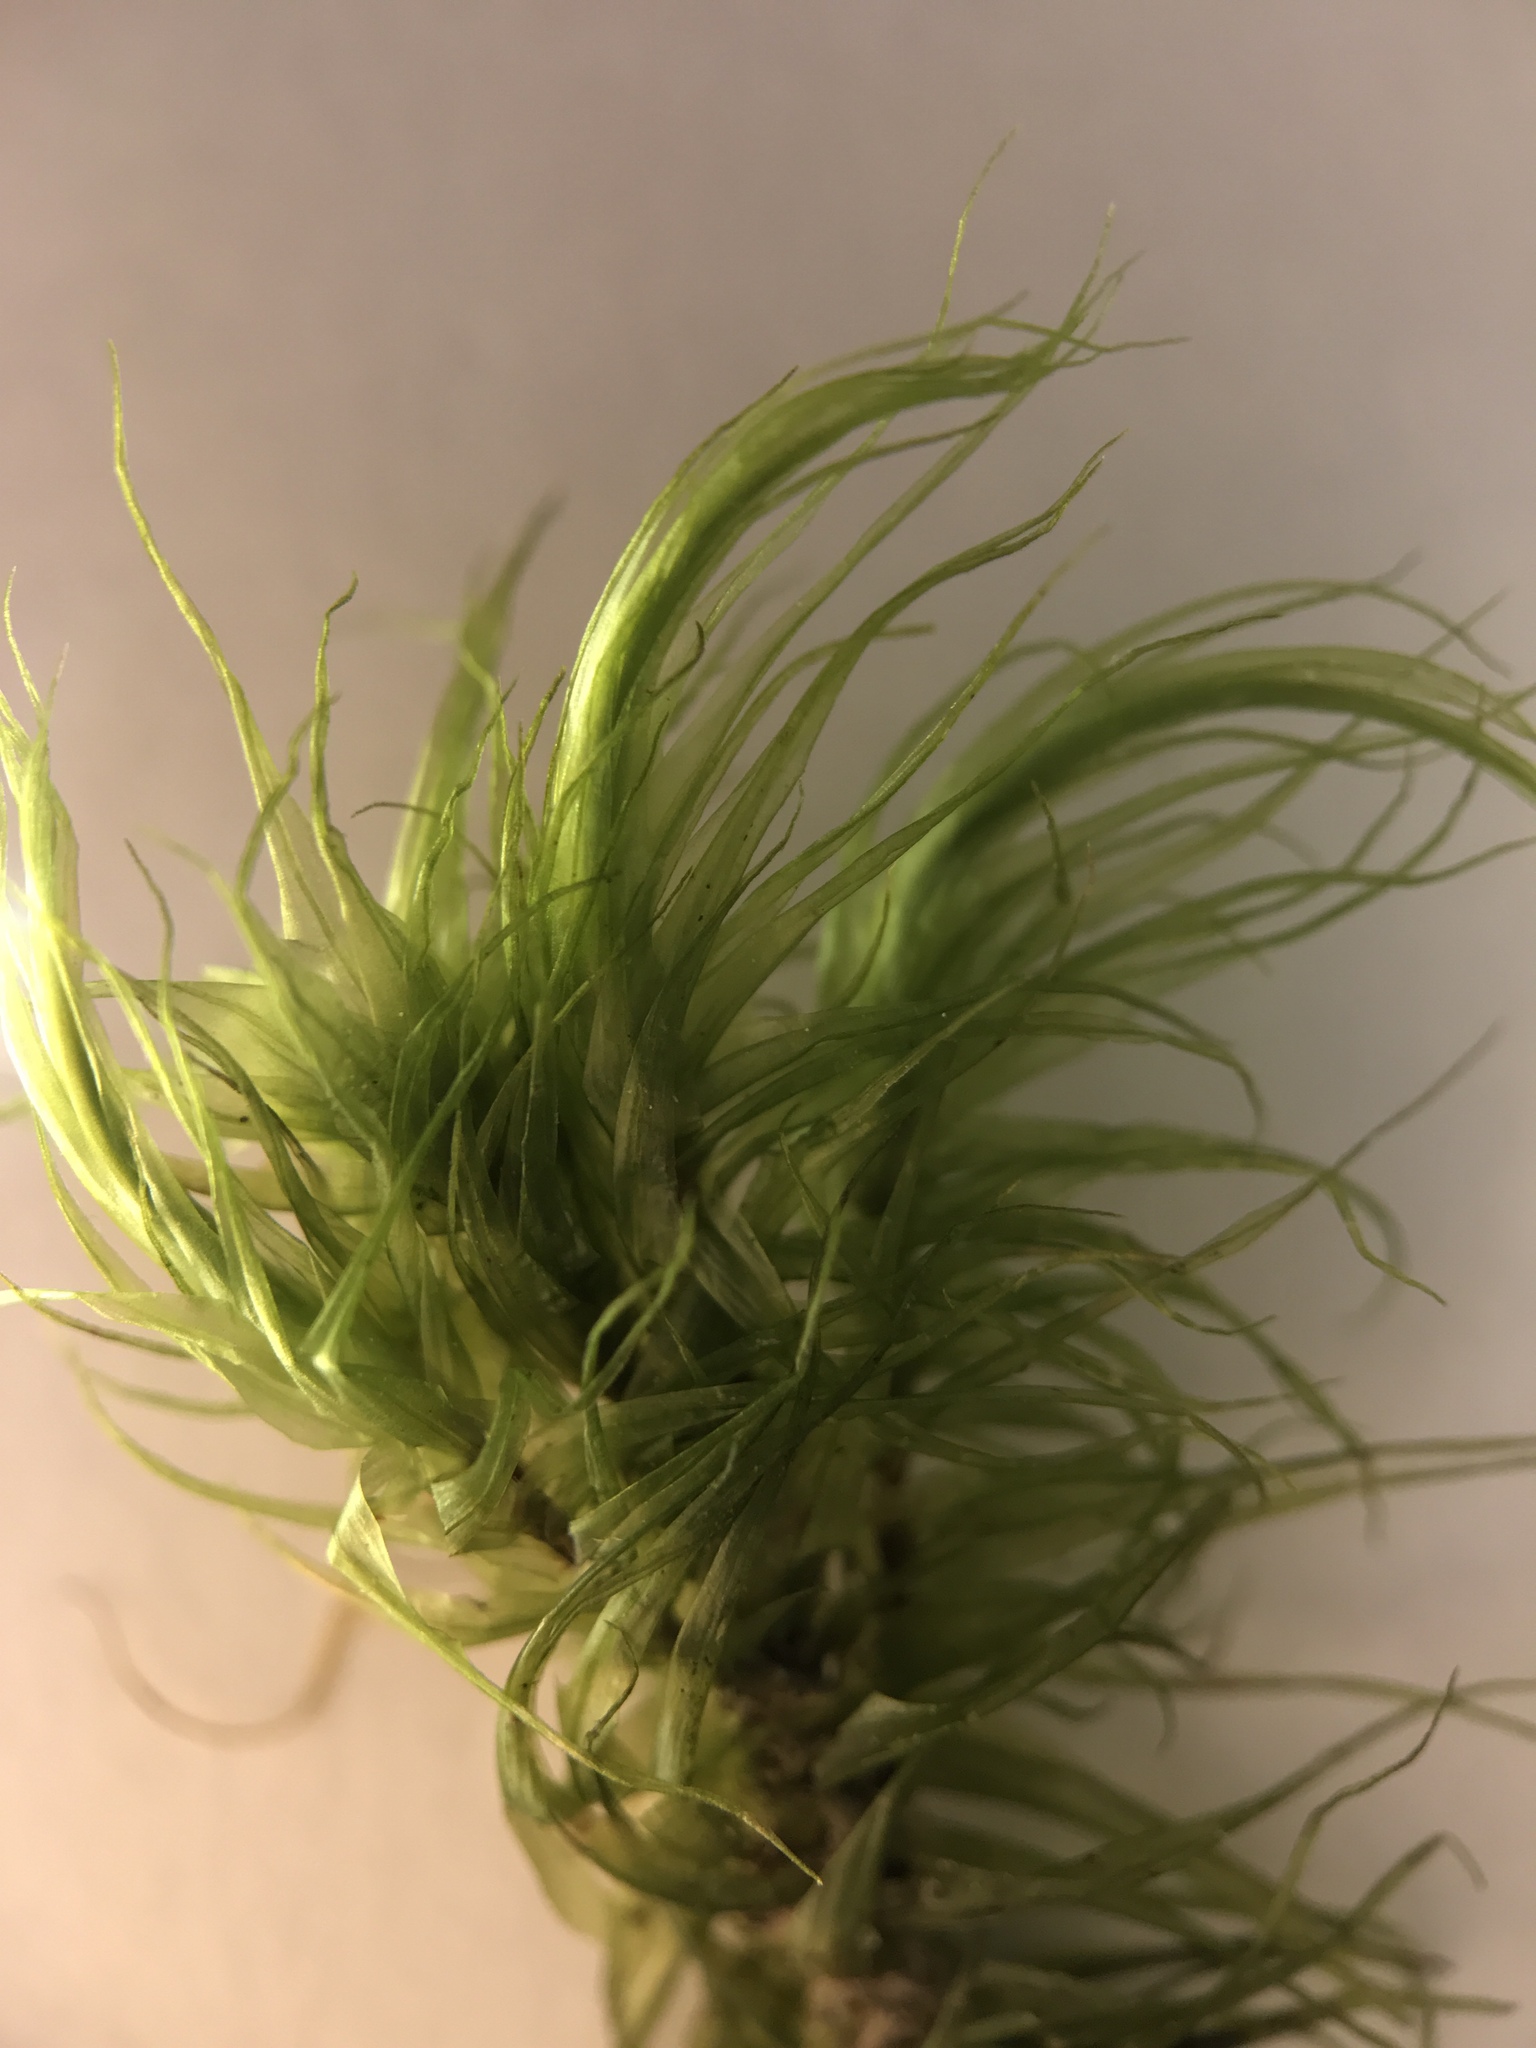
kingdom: Plantae
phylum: Bryophyta
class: Bryopsida
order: Dicranales
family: Dicranaceae
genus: Dicranum
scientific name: Dicranum scoparium
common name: Broom fork-moss
